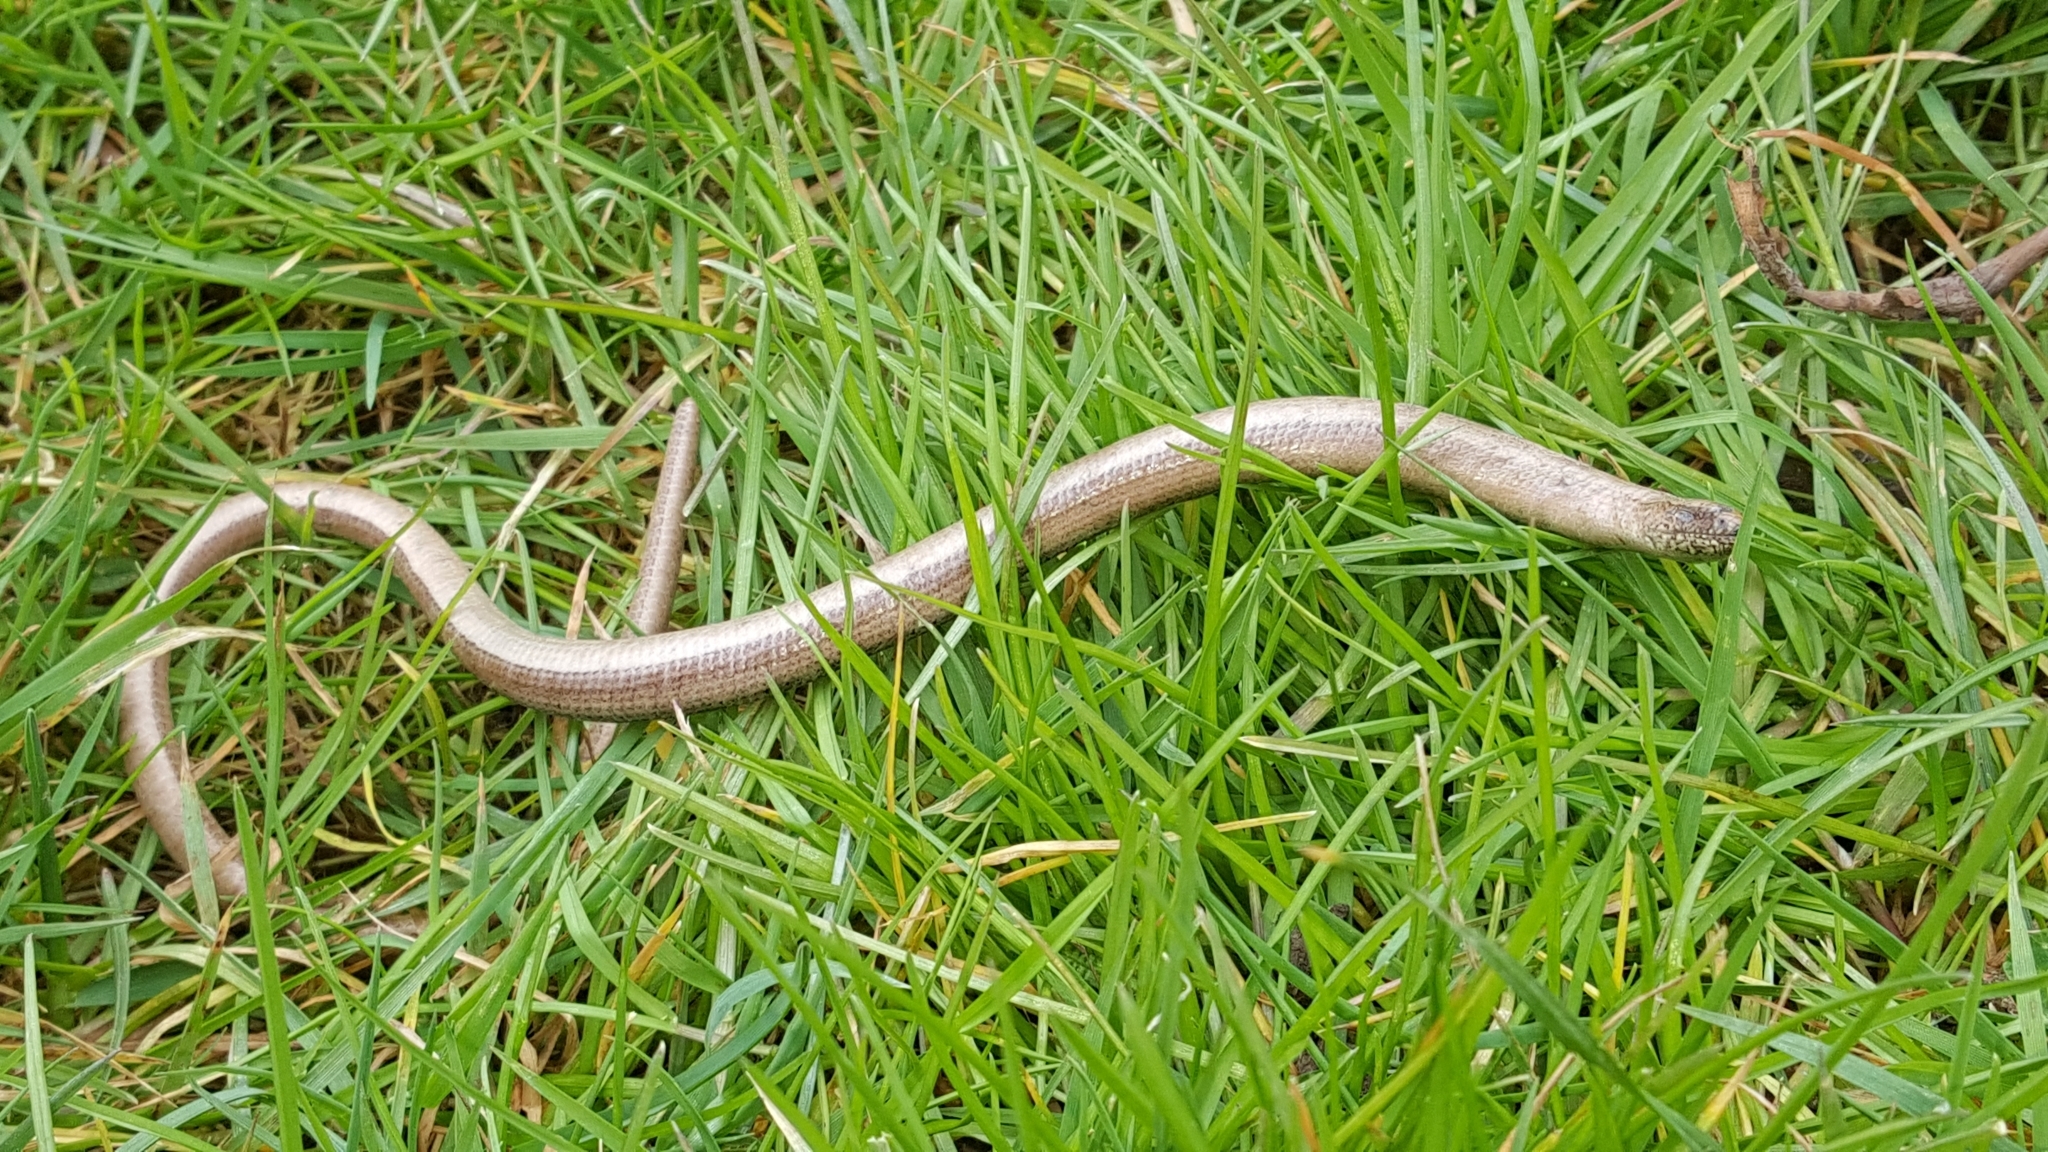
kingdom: Animalia
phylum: Chordata
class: Squamata
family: Anguidae
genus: Anguis
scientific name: Anguis fragilis
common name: Slow worm
